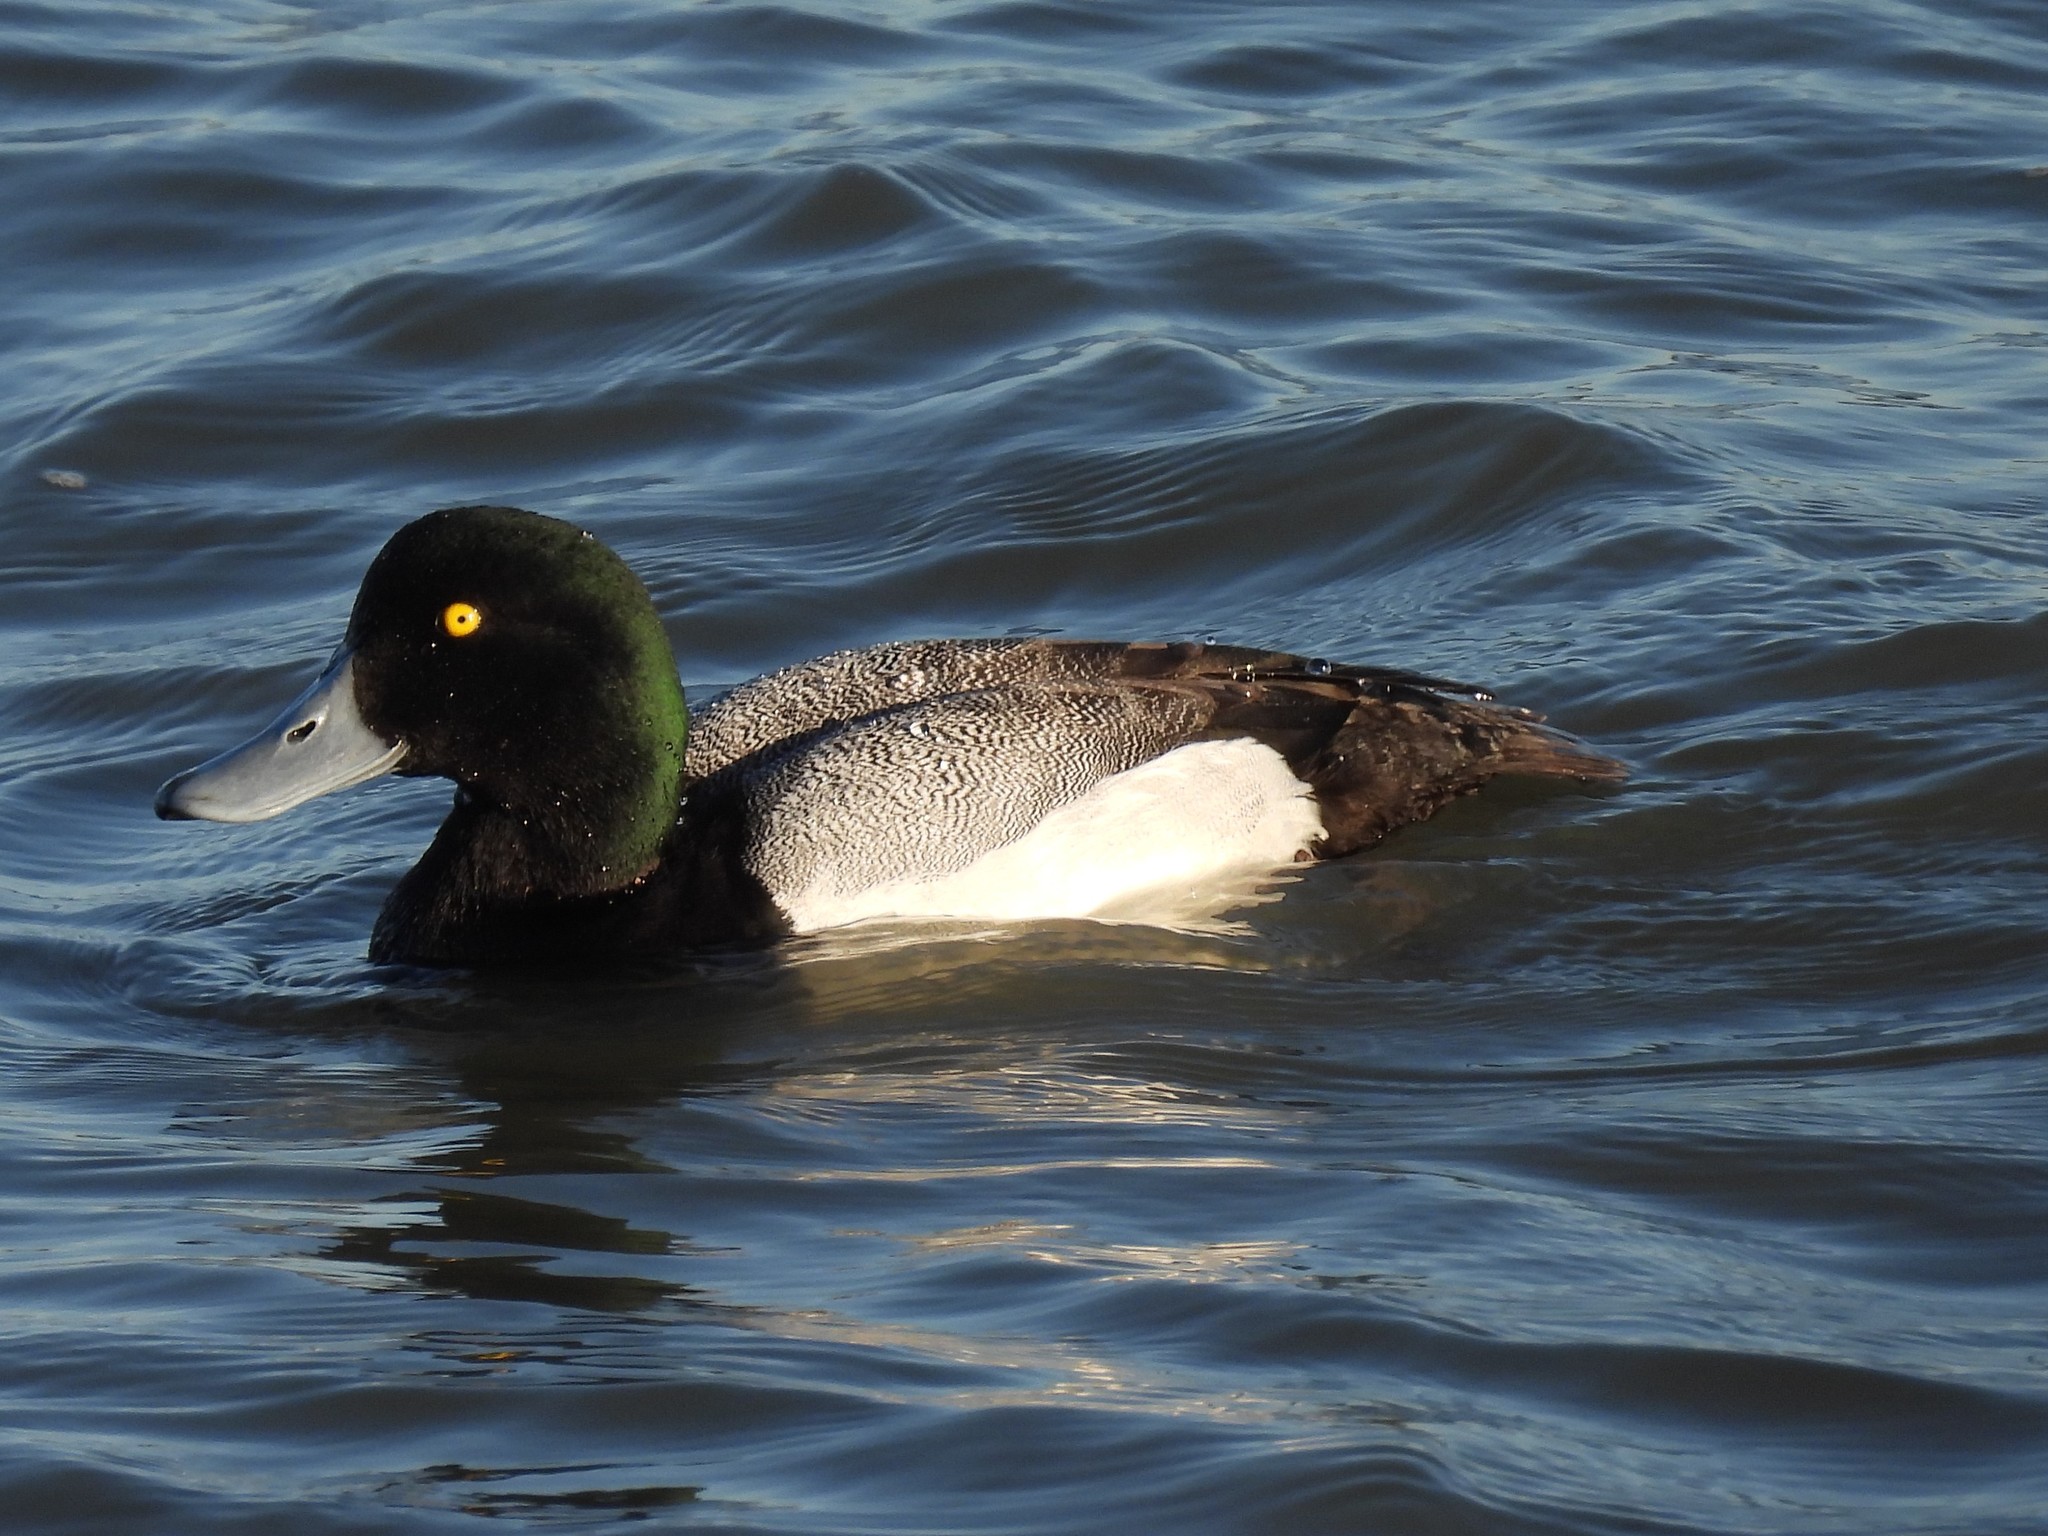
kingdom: Animalia
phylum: Chordata
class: Aves
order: Anseriformes
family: Anatidae
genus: Aythya
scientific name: Aythya marila
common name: Greater scaup
